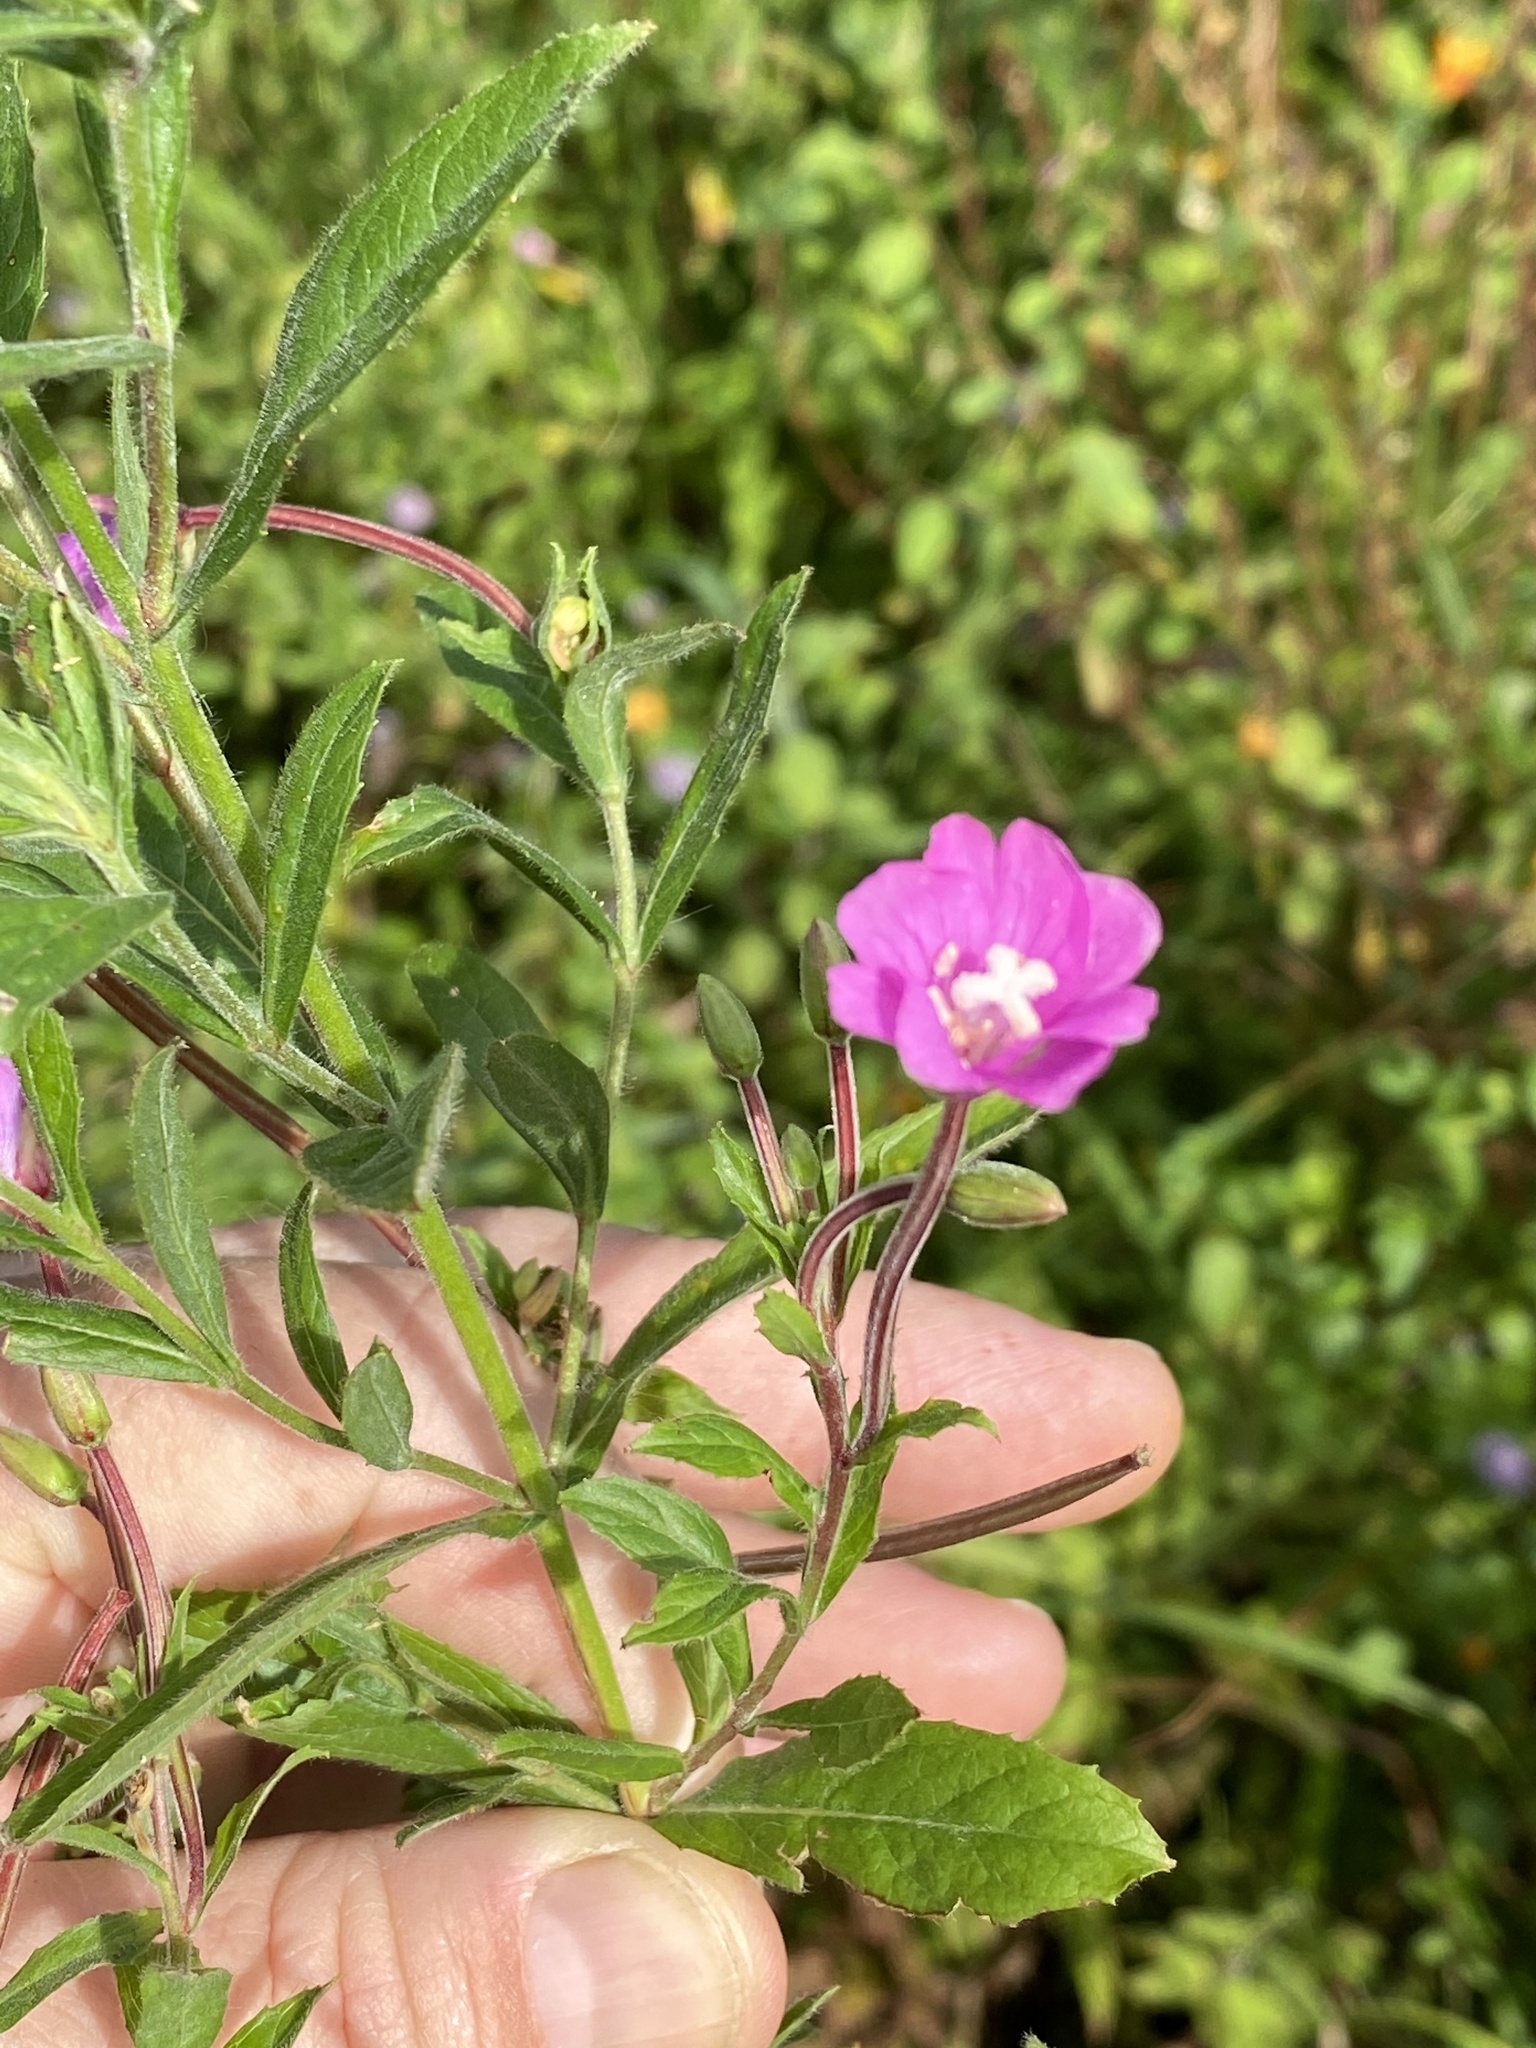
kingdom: Plantae
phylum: Tracheophyta
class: Magnoliopsida
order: Myrtales
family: Onagraceae
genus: Epilobium
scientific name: Epilobium hirsutum
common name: Great willowherb
